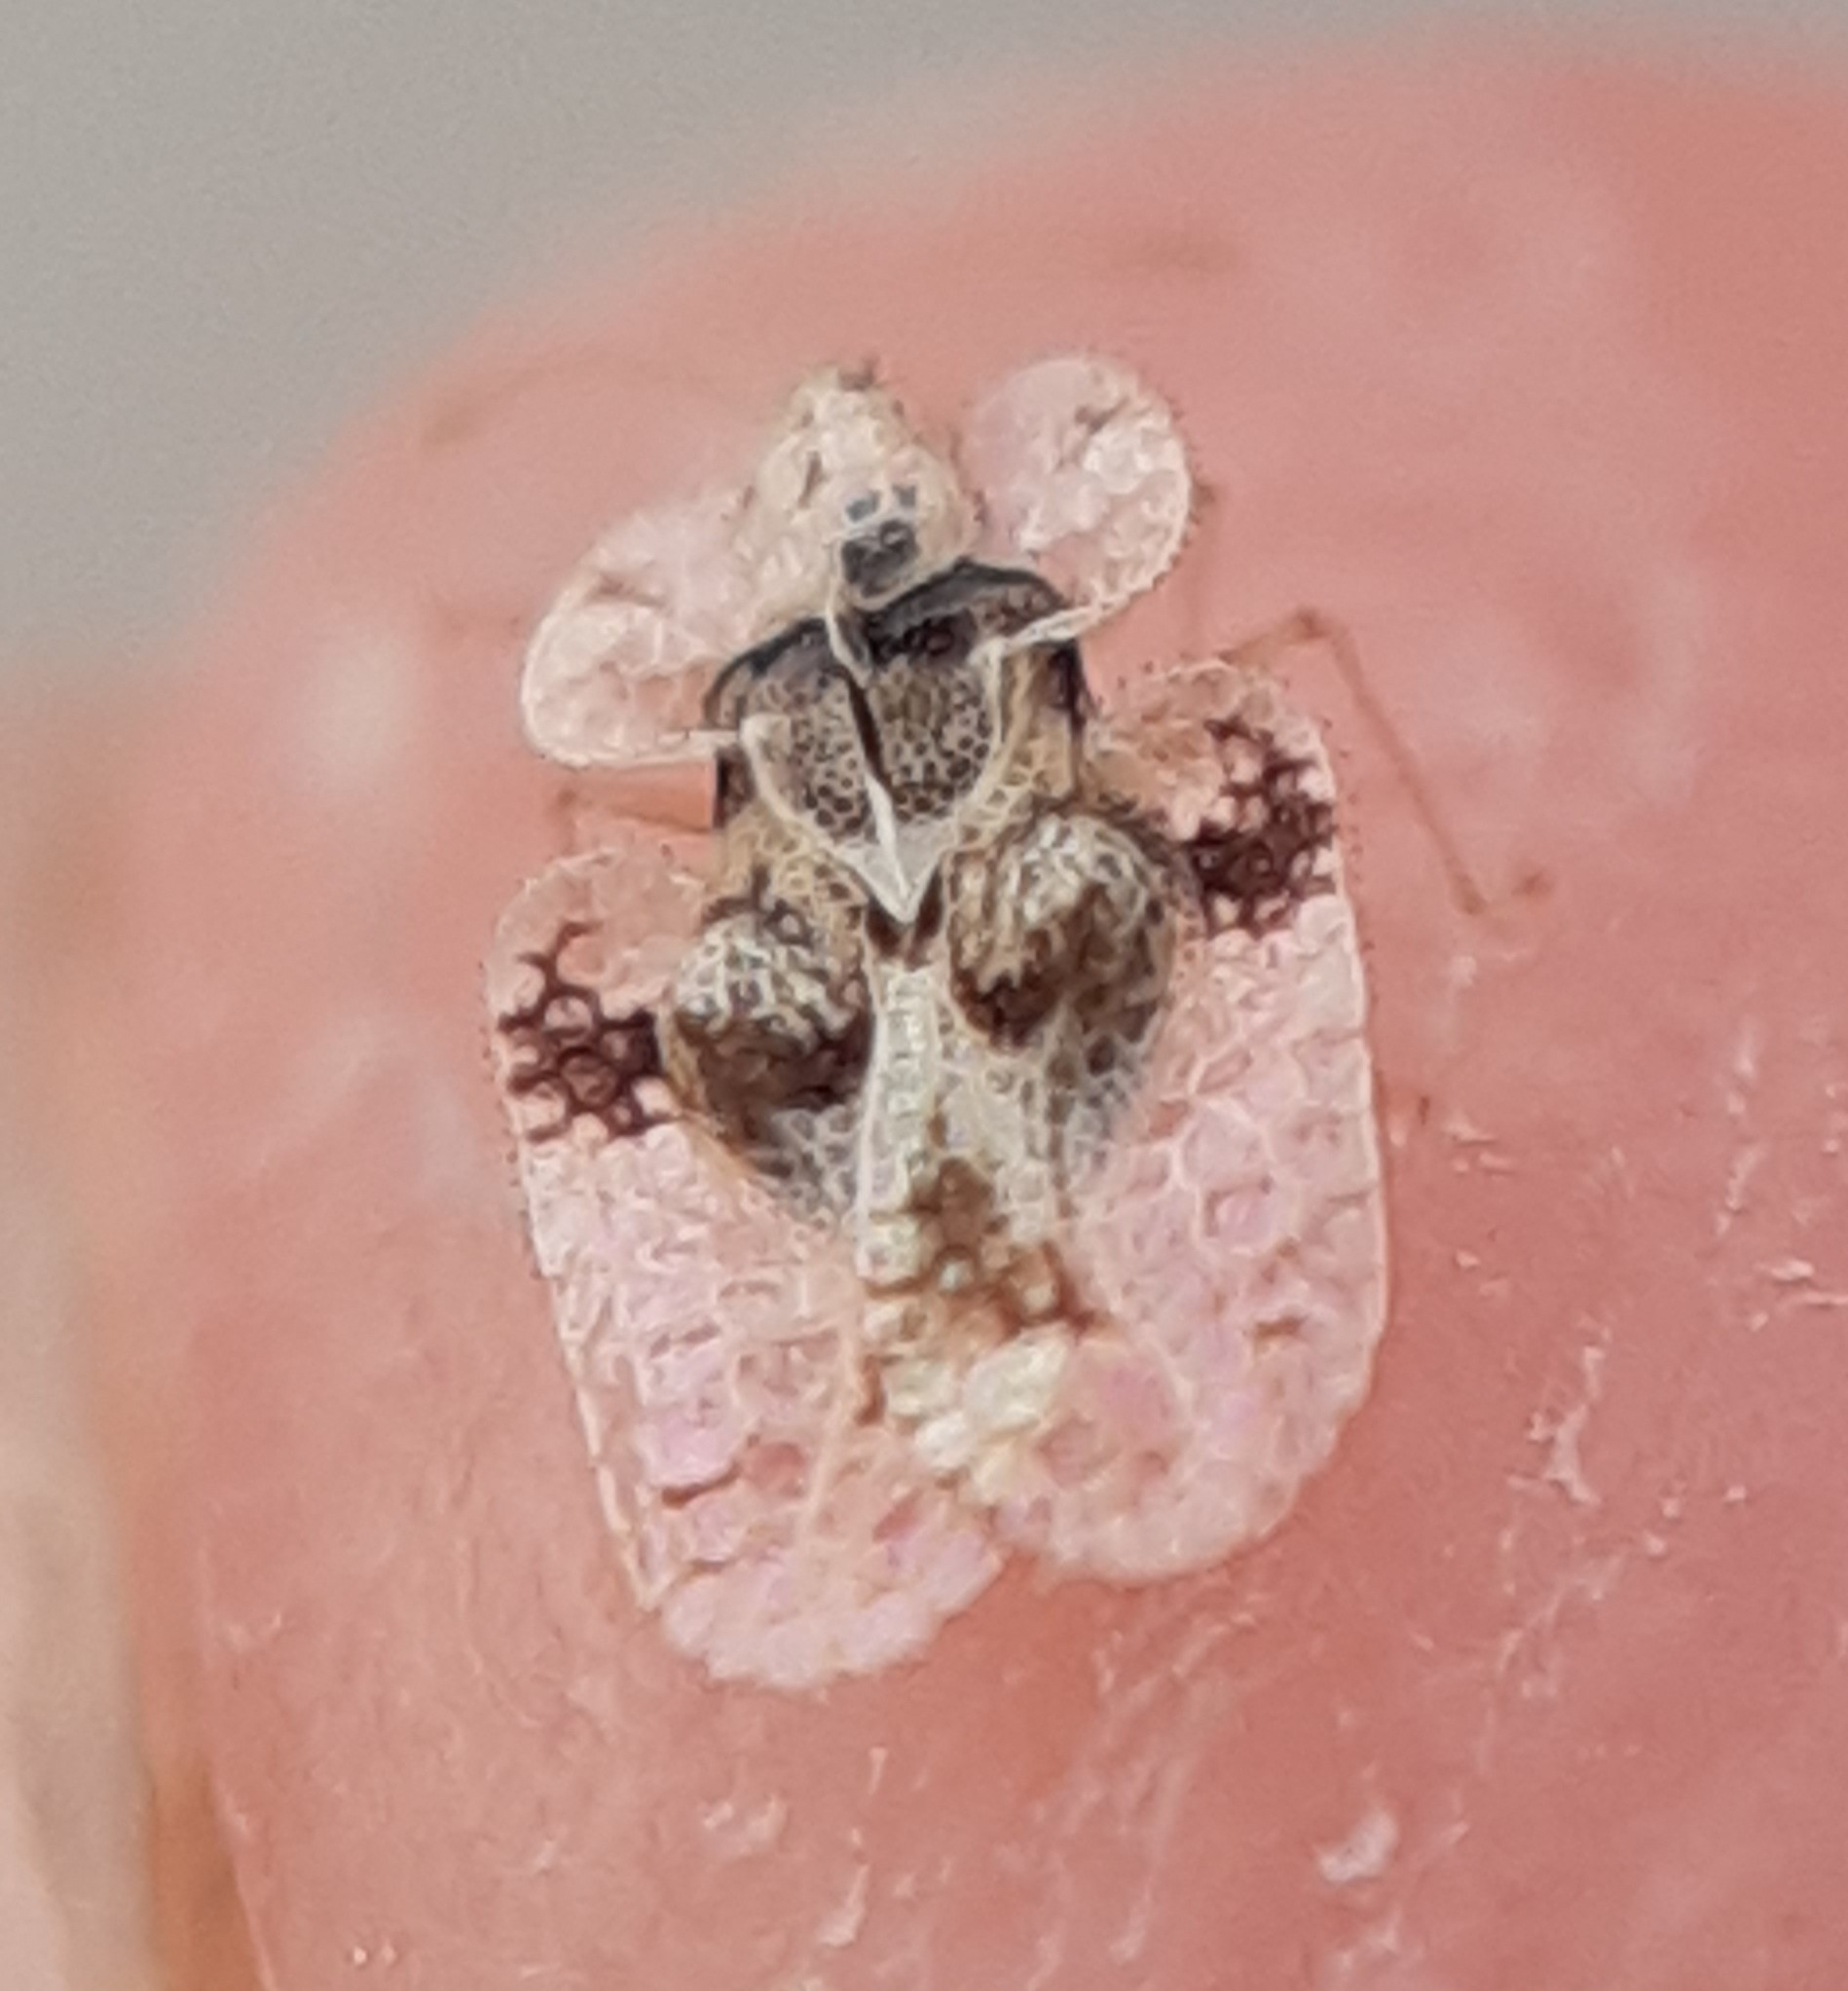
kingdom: Animalia
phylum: Arthropoda
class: Insecta
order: Hemiptera
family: Tingidae
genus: Corythucha
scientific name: Corythucha arcuata
